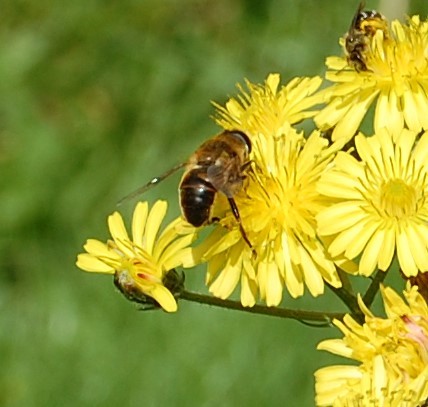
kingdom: Animalia
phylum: Arthropoda
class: Insecta
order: Diptera
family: Syrphidae
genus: Eristalis
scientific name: Eristalis tenax
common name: Drone fly
